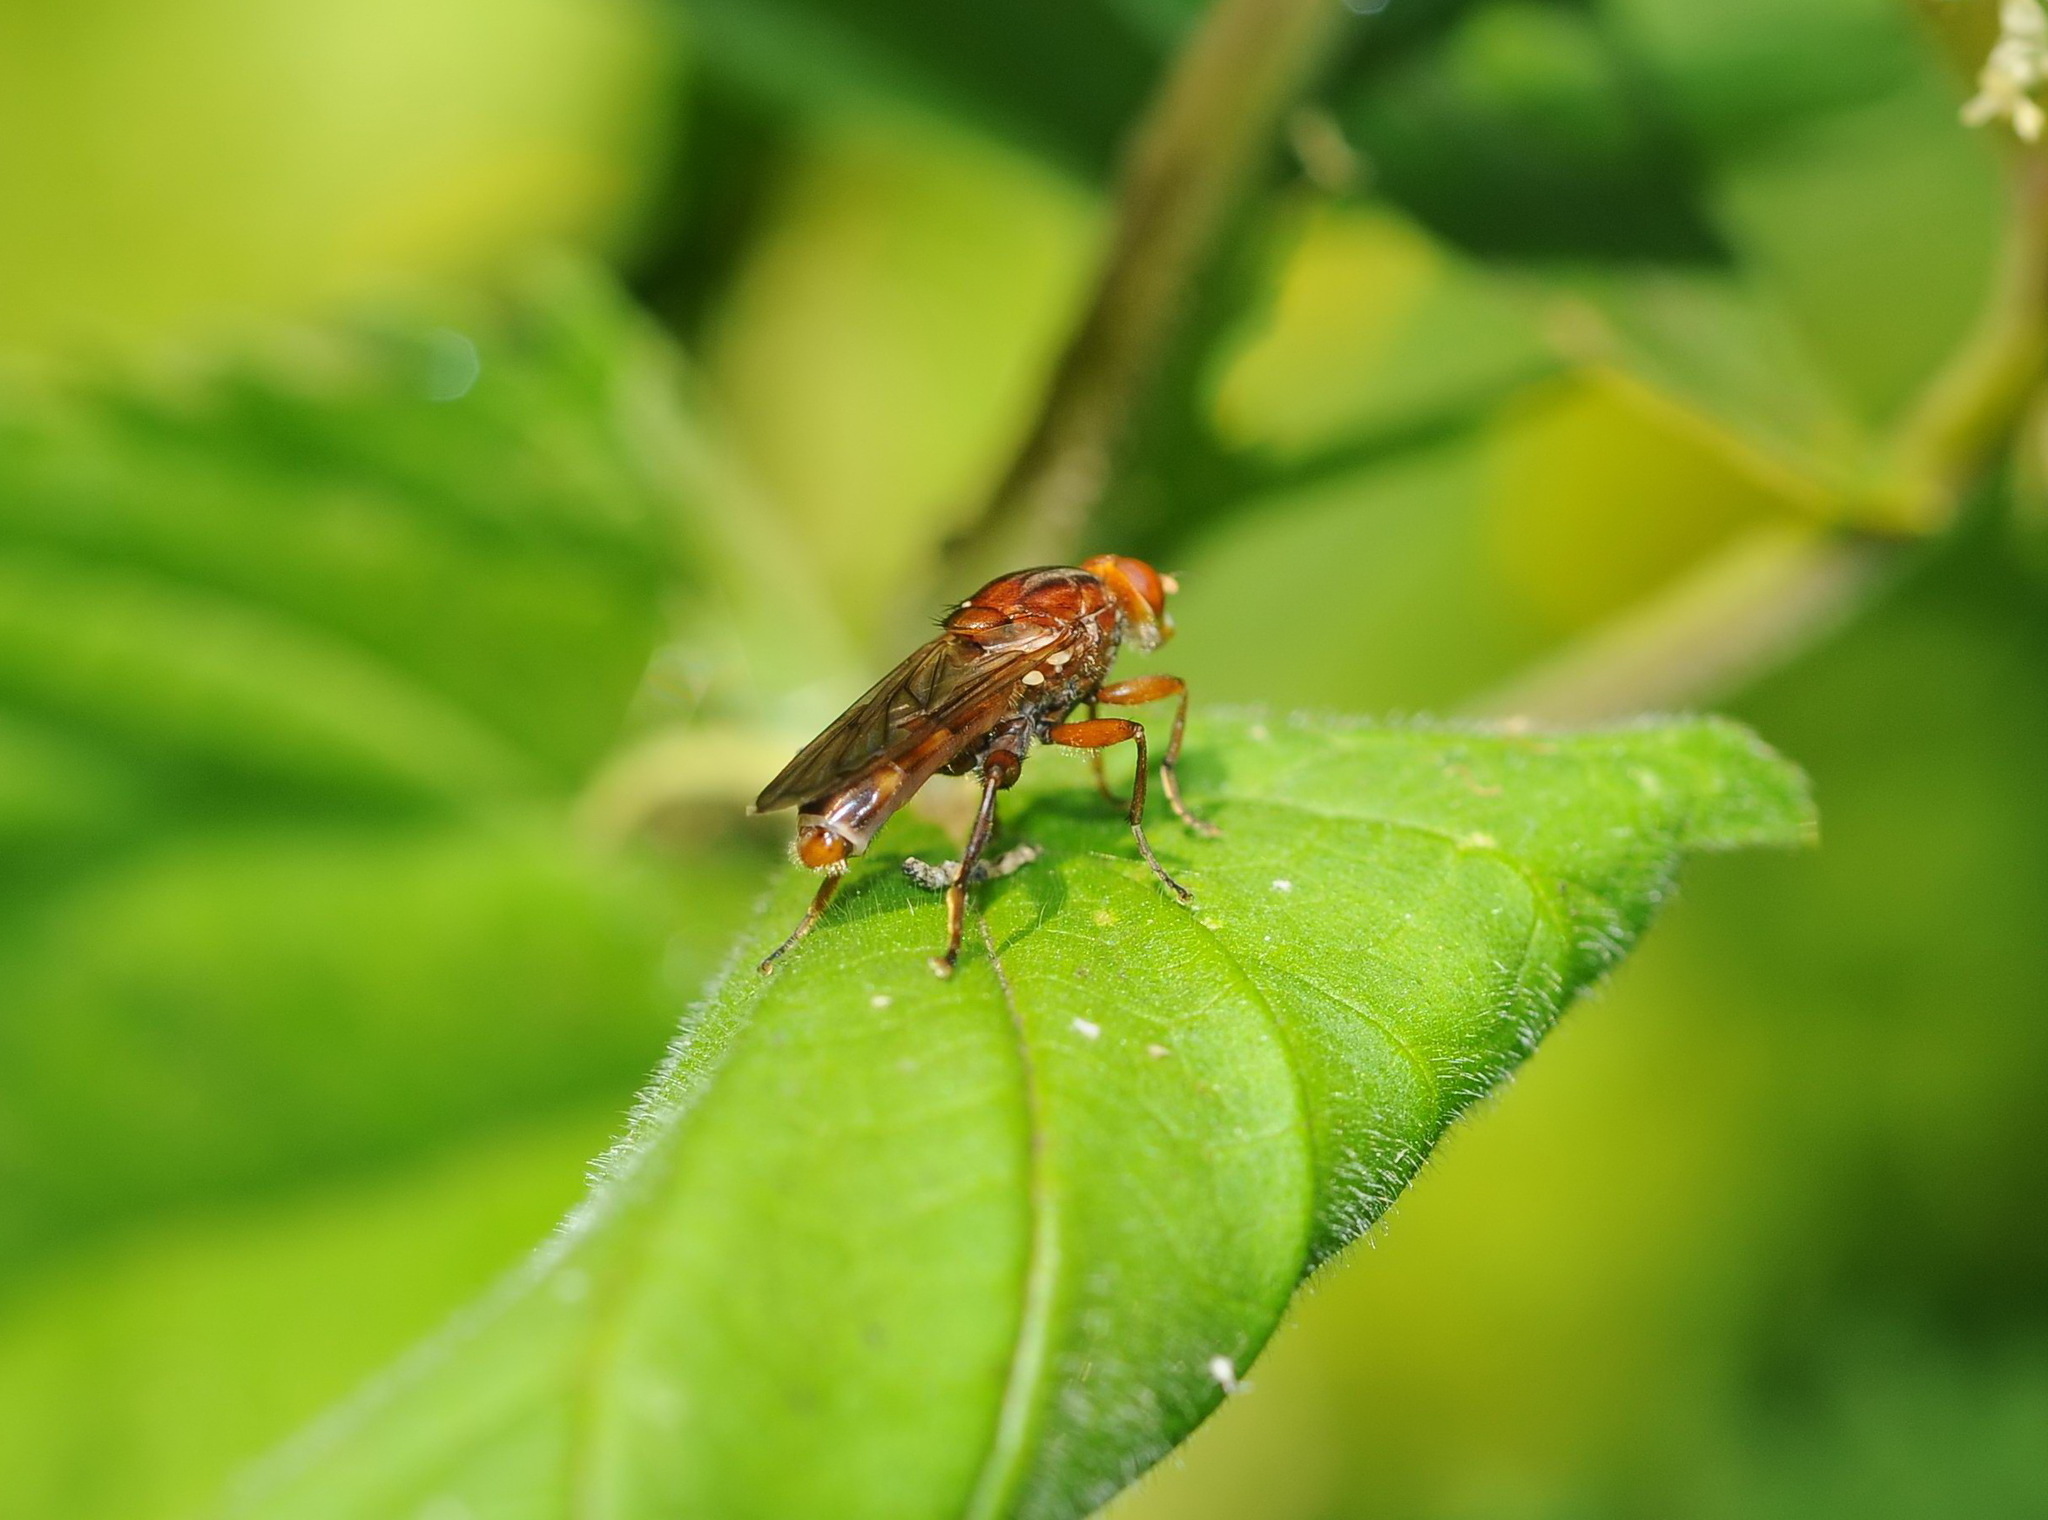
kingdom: Animalia
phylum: Arthropoda
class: Insecta
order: Diptera
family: Syrphidae
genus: Hammerschmidtia
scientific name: Hammerschmidtia ferruginea
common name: Aspen hoverfly
